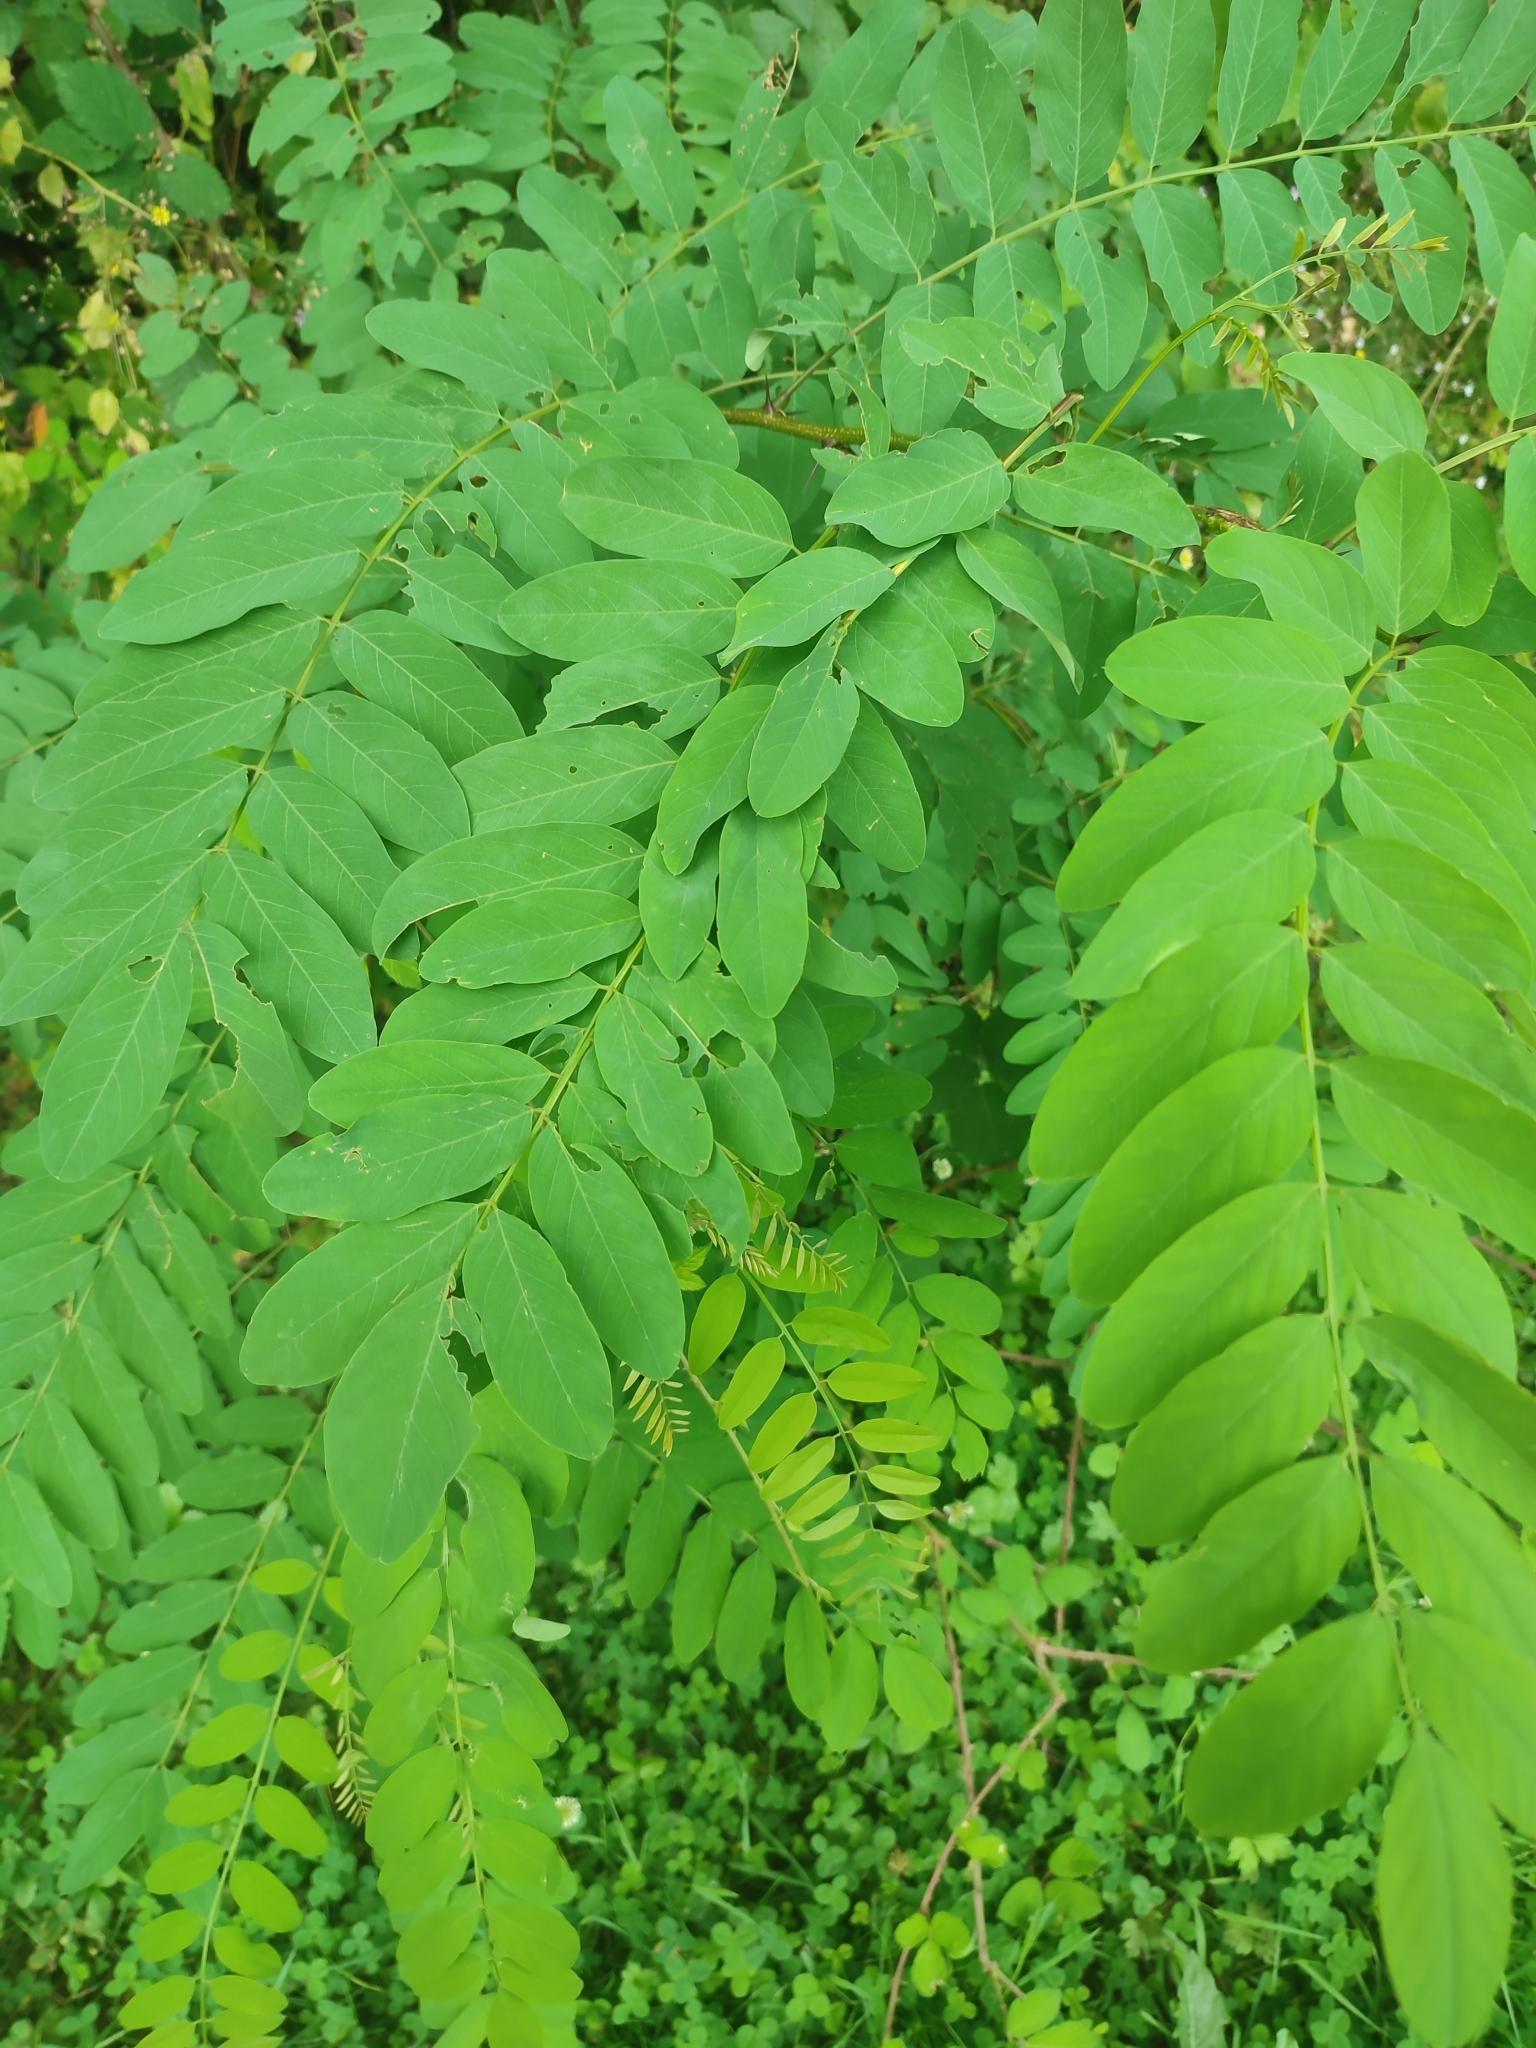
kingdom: Plantae
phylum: Tracheophyta
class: Magnoliopsida
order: Fabales
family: Fabaceae
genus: Robinia
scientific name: Robinia pseudoacacia
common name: Black locust
